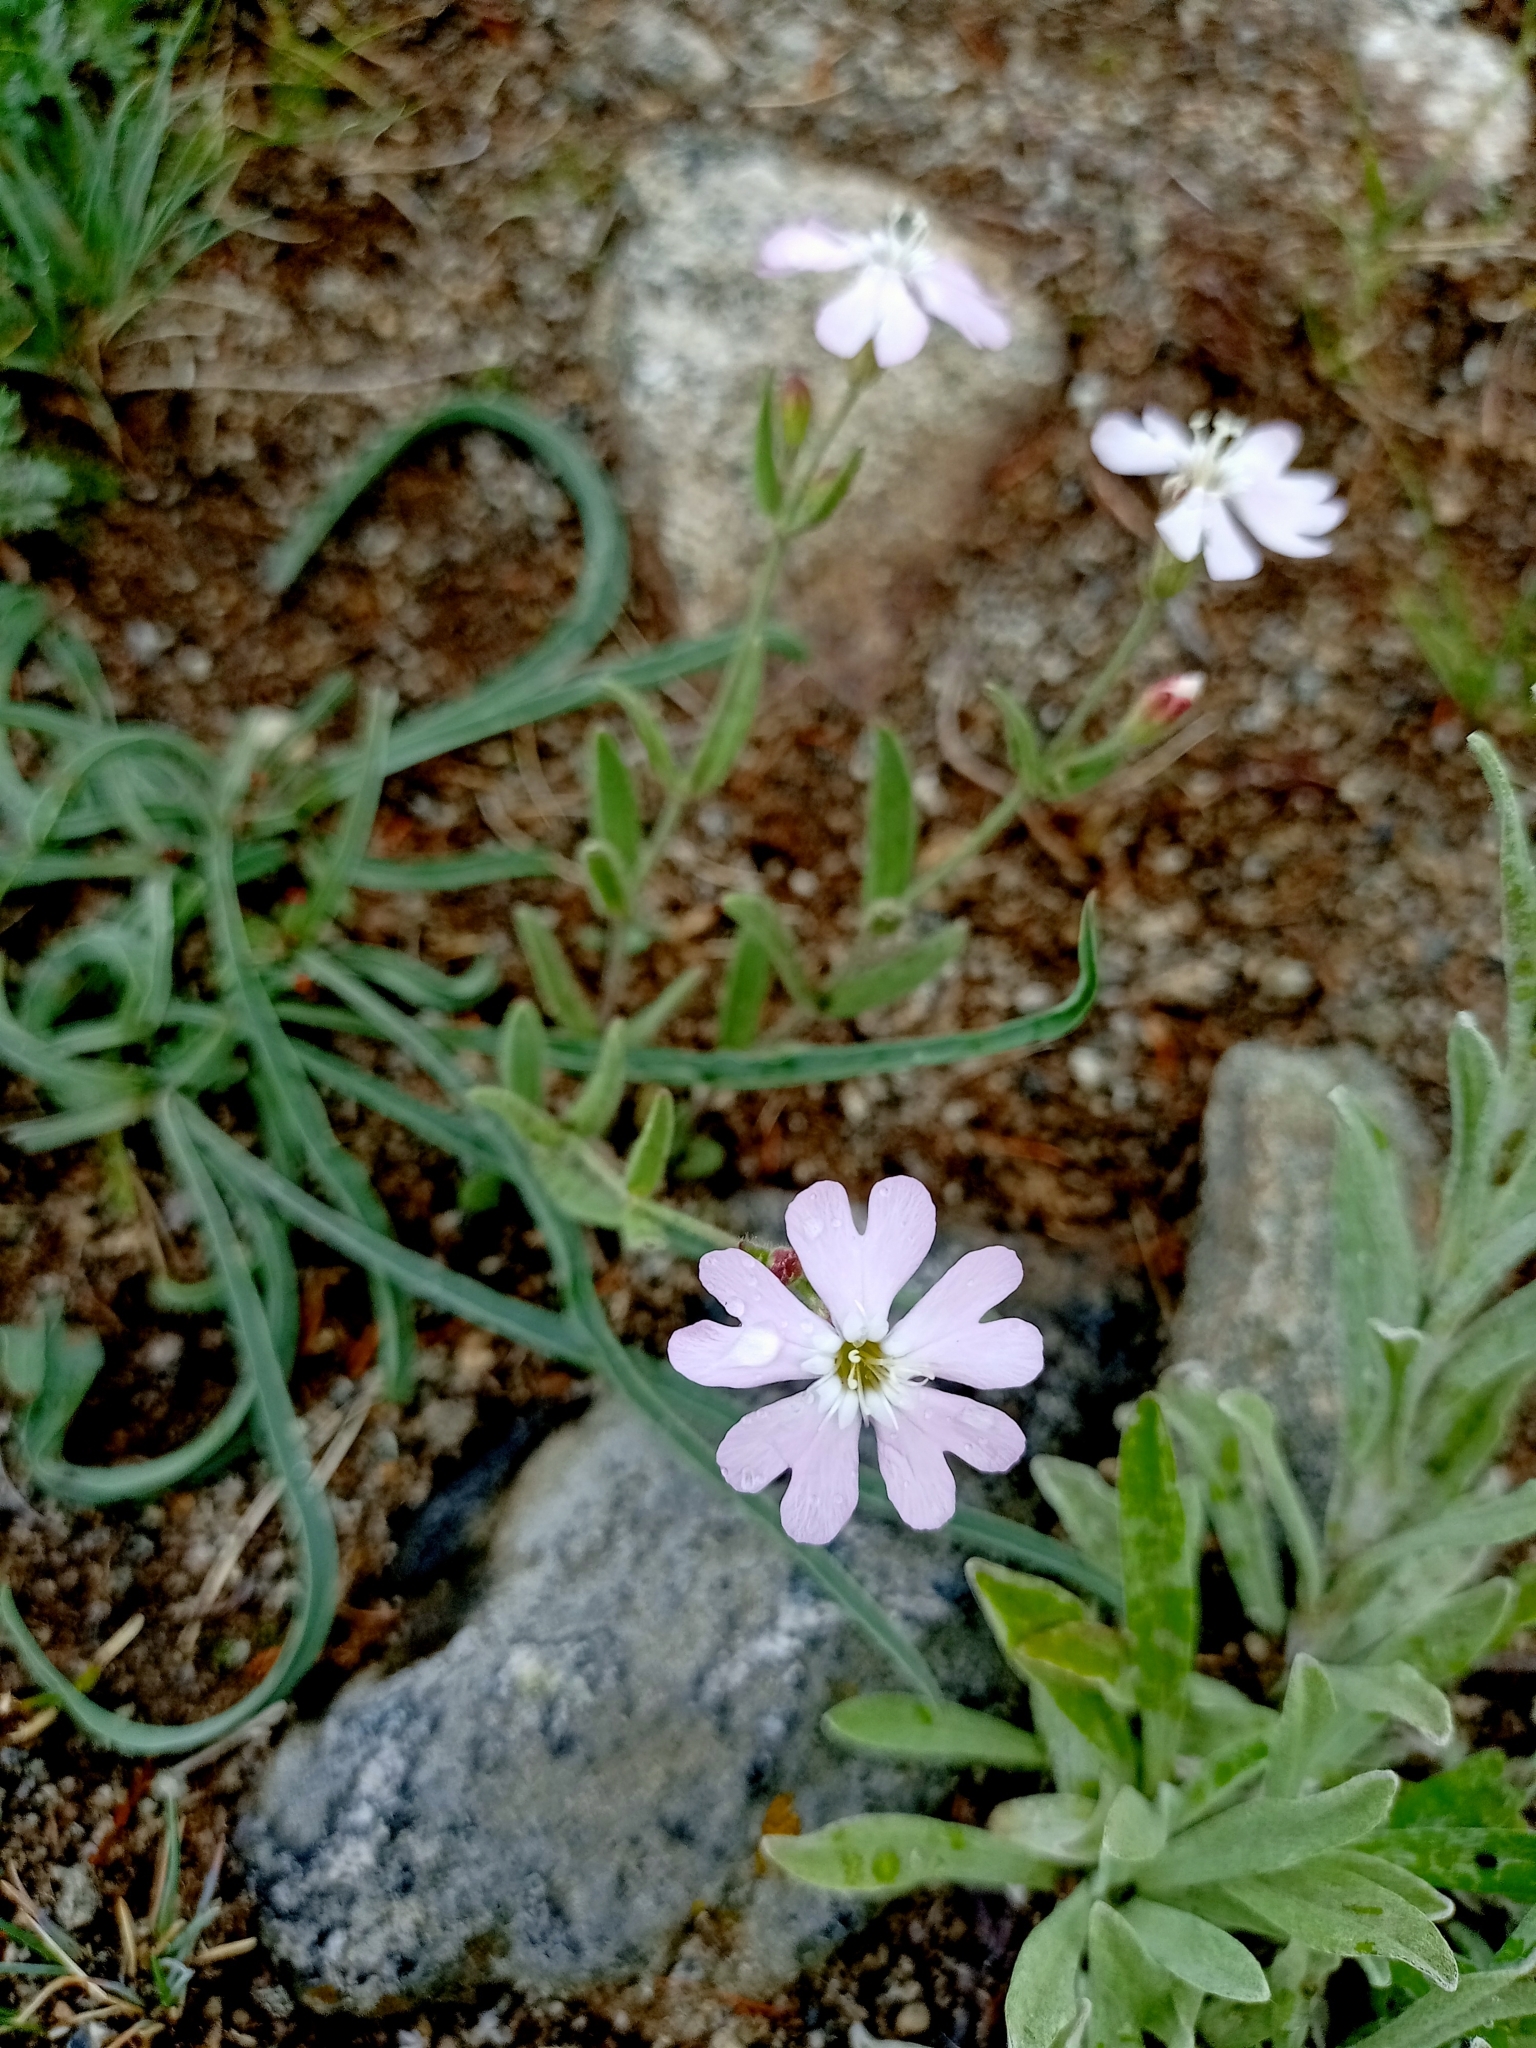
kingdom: Plantae
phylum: Tracheophyta
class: Magnoliopsida
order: Caryophyllales
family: Caryophyllaceae
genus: Silene
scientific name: Silene orientalimongolica
